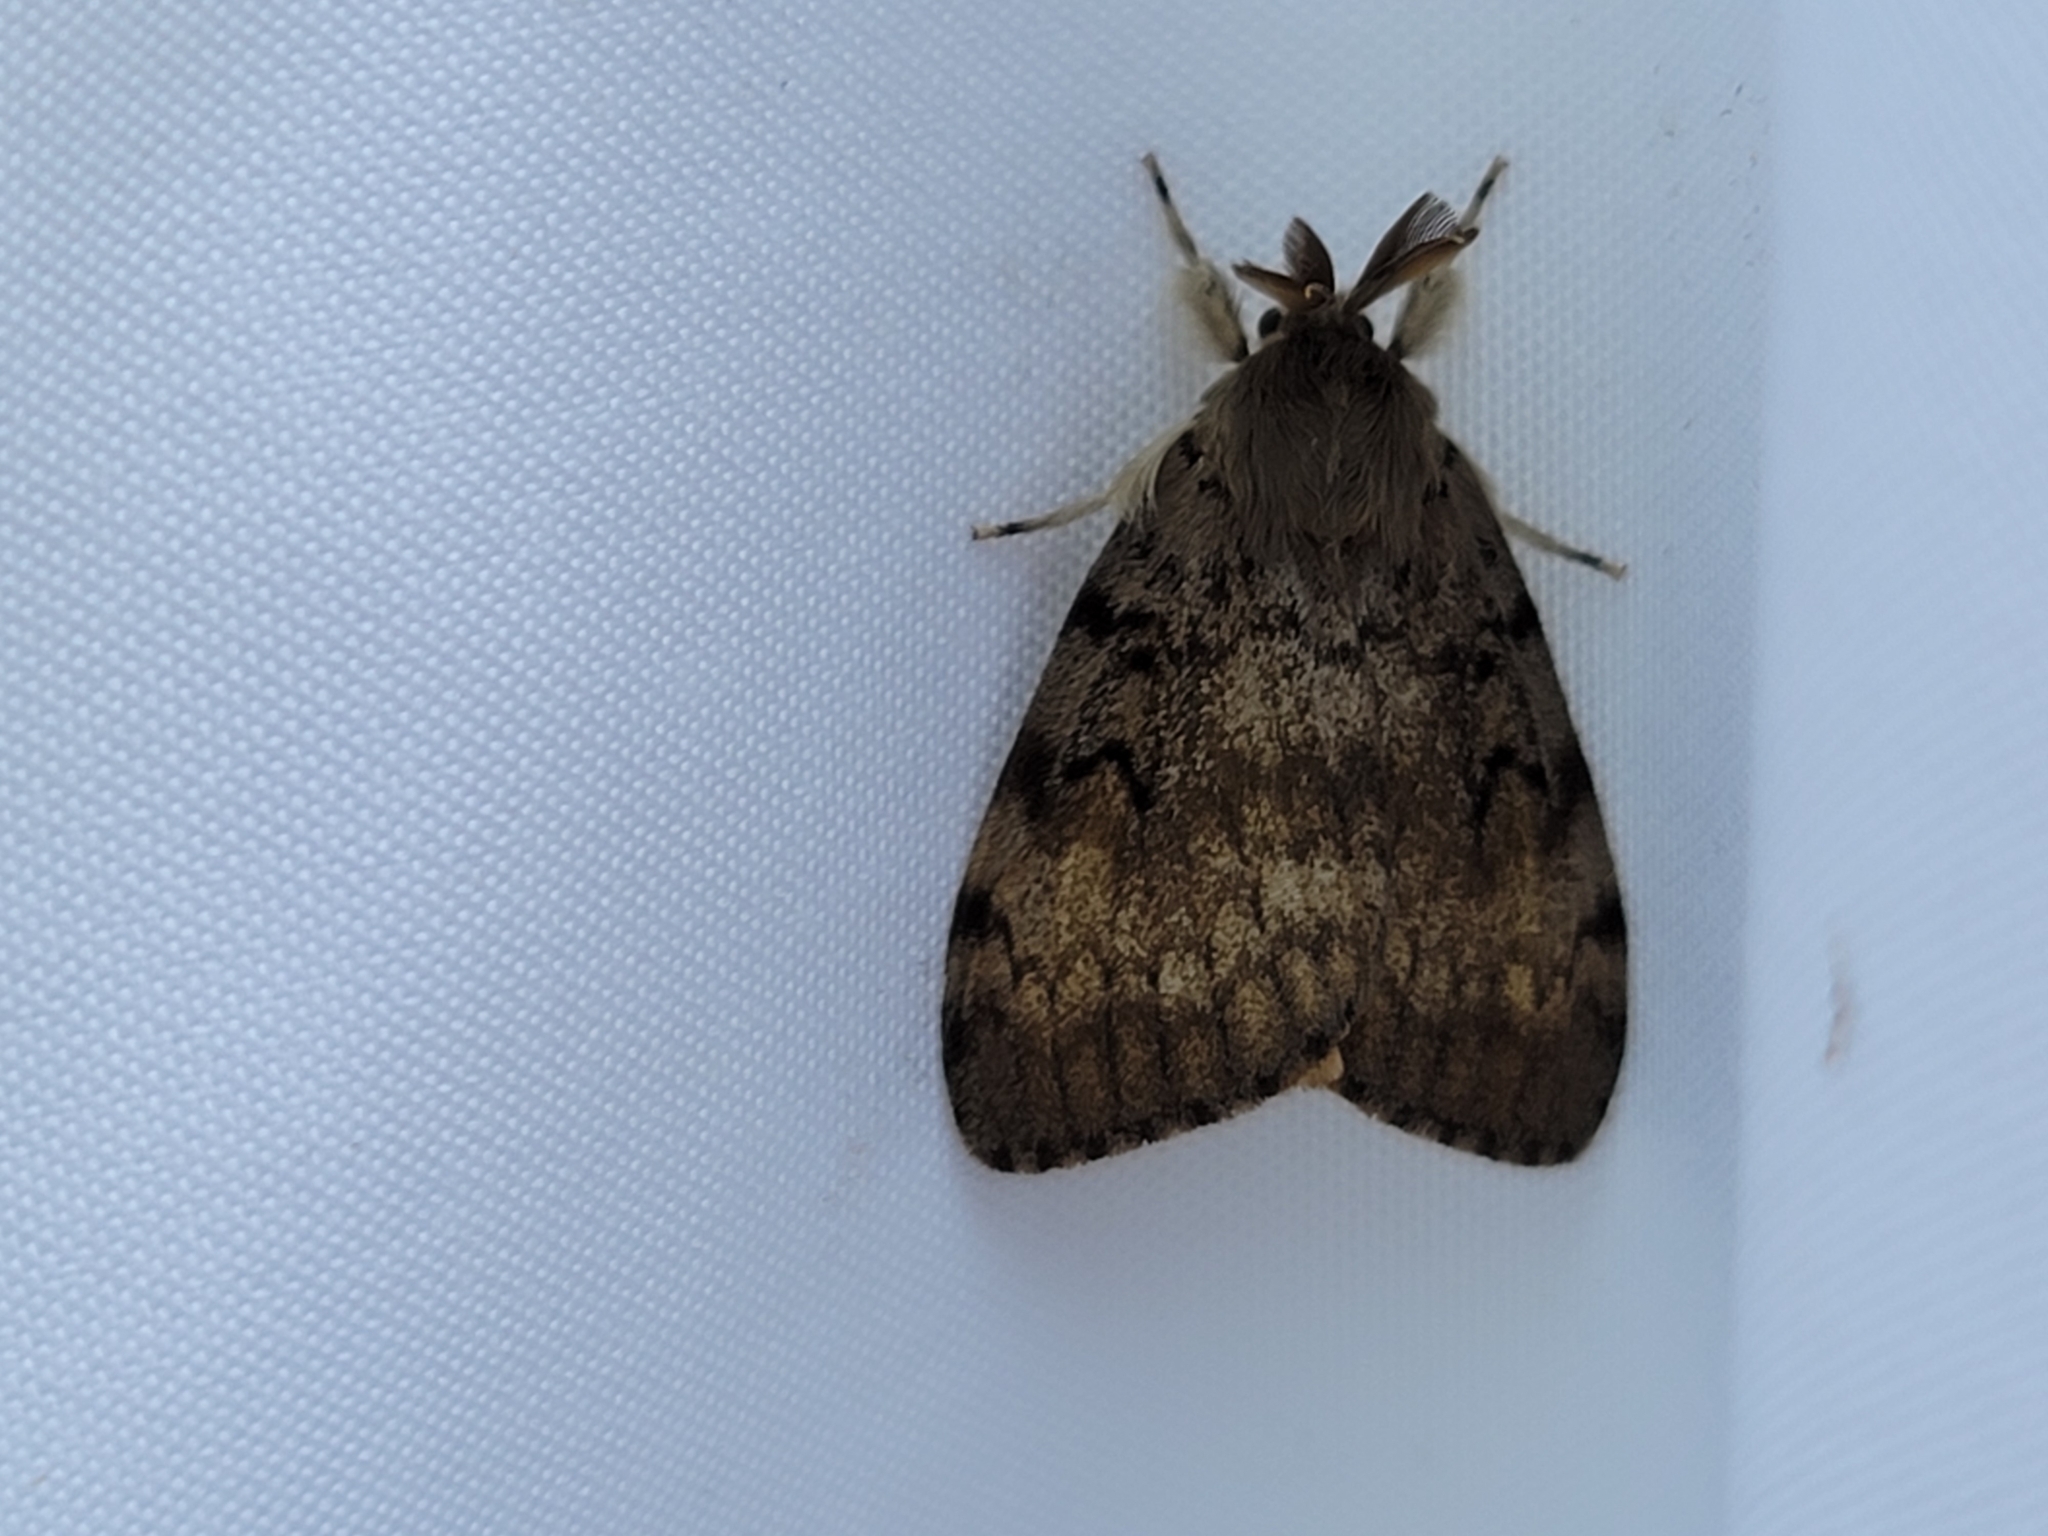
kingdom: Animalia
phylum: Arthropoda
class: Insecta
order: Lepidoptera
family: Erebidae
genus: Lymantria
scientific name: Lymantria dispar
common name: Gypsy moth
